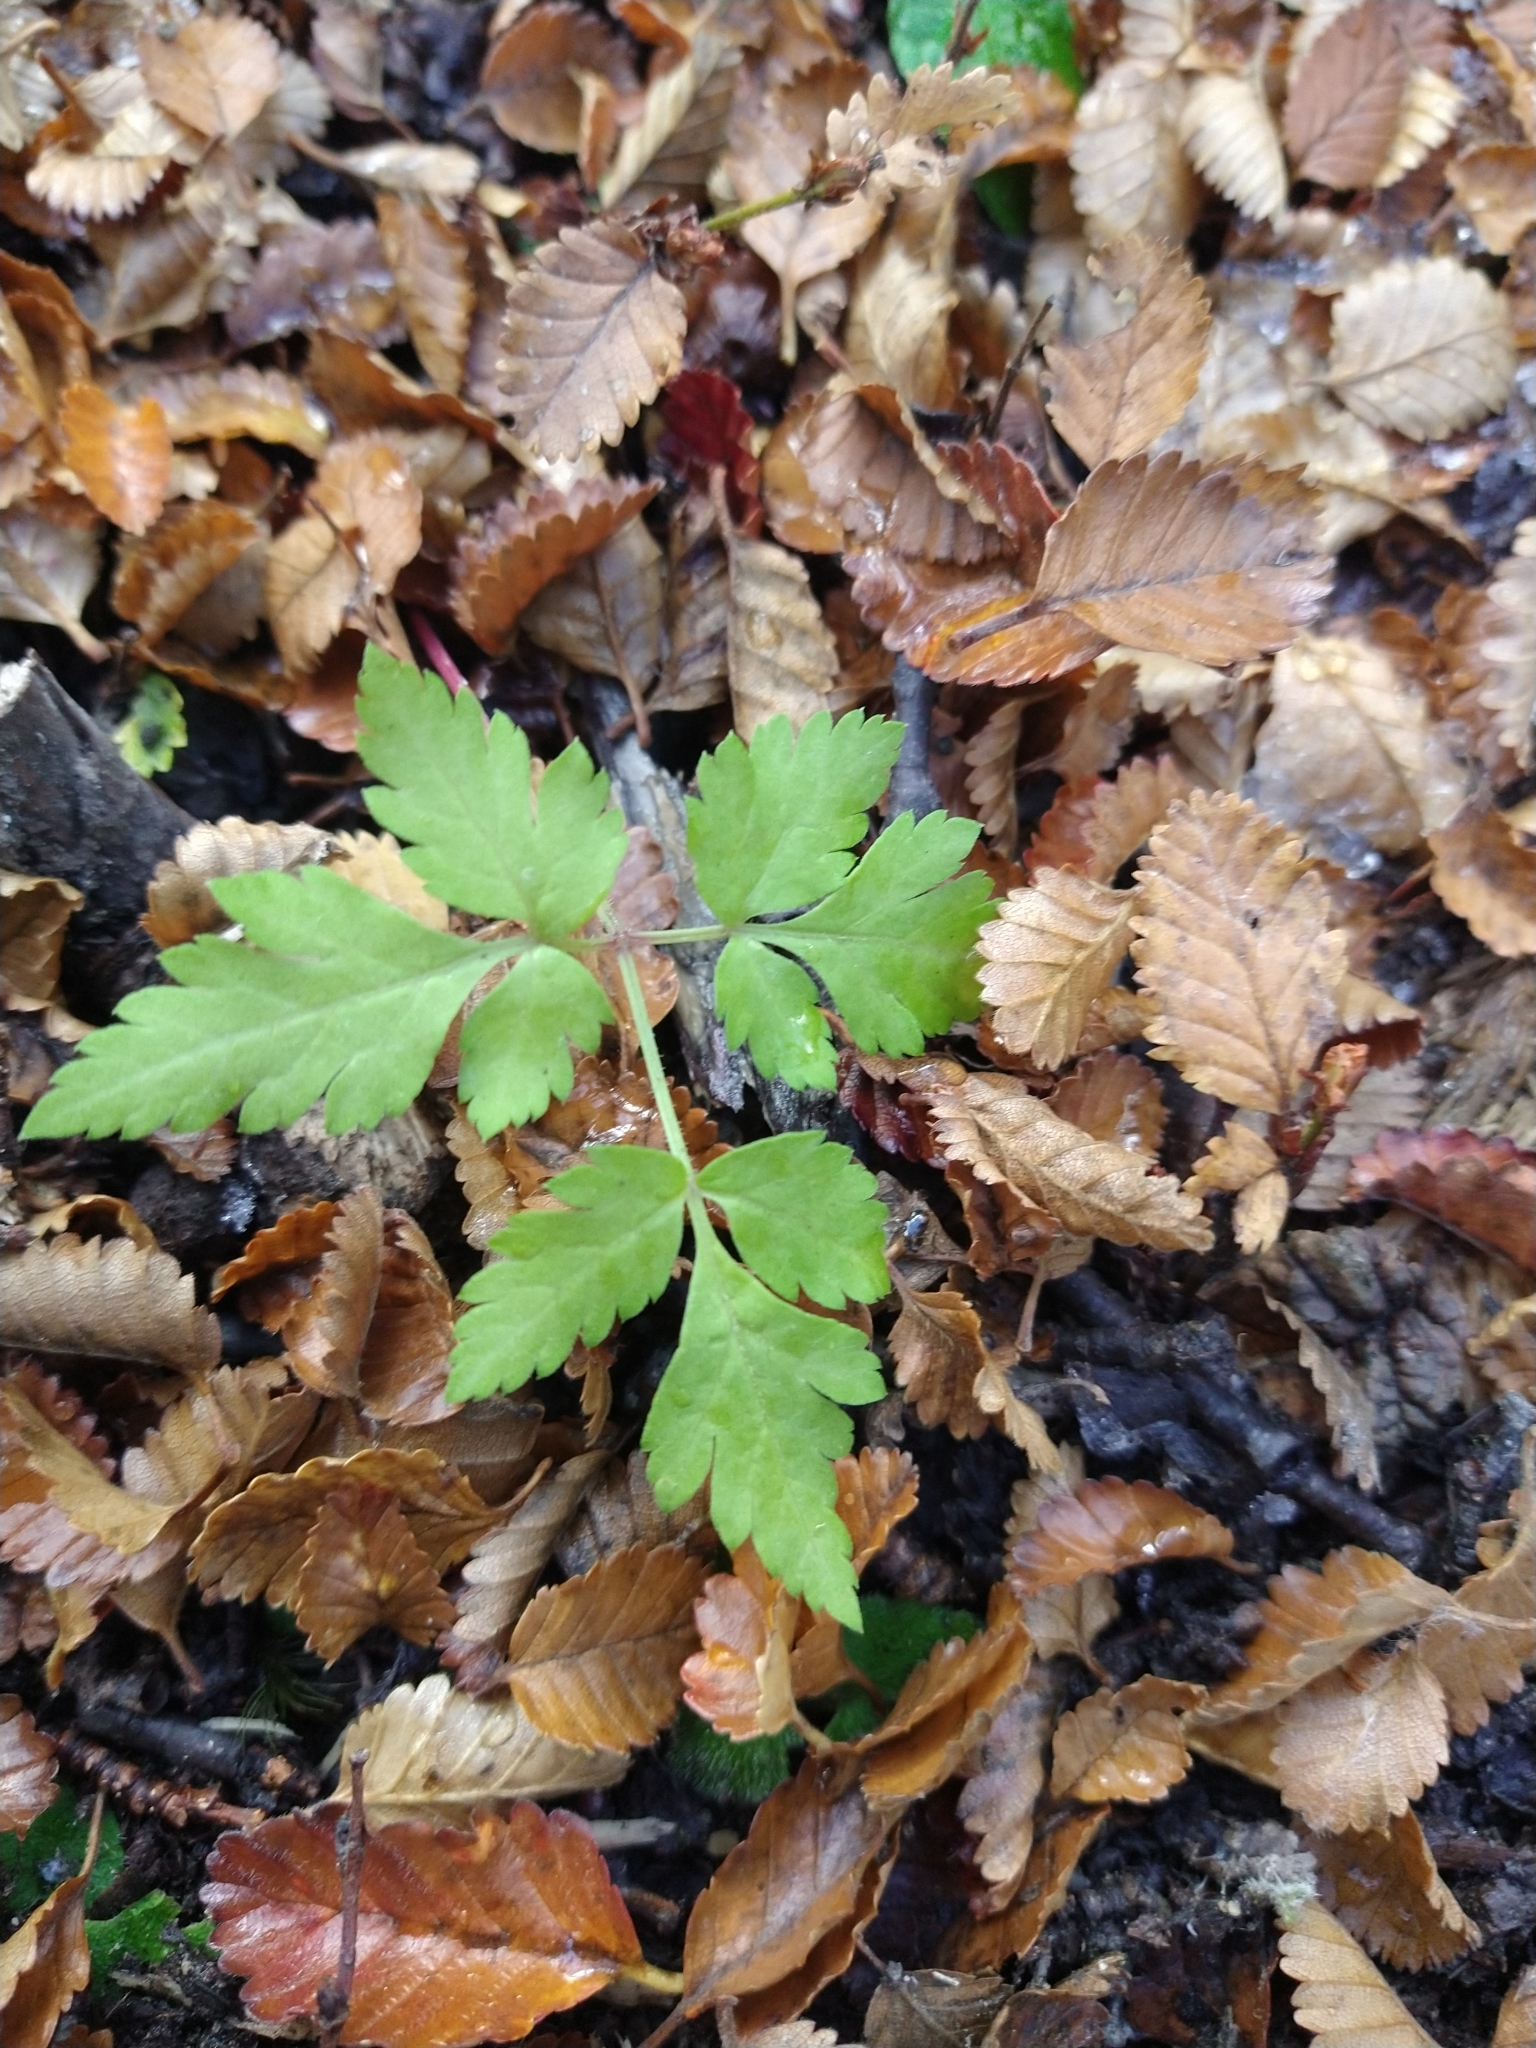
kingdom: Plantae
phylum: Tracheophyta
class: Magnoliopsida
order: Apiales
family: Apiaceae
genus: Osmorhiza
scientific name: Osmorhiza berteroi
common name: Mountain sweet cicely
